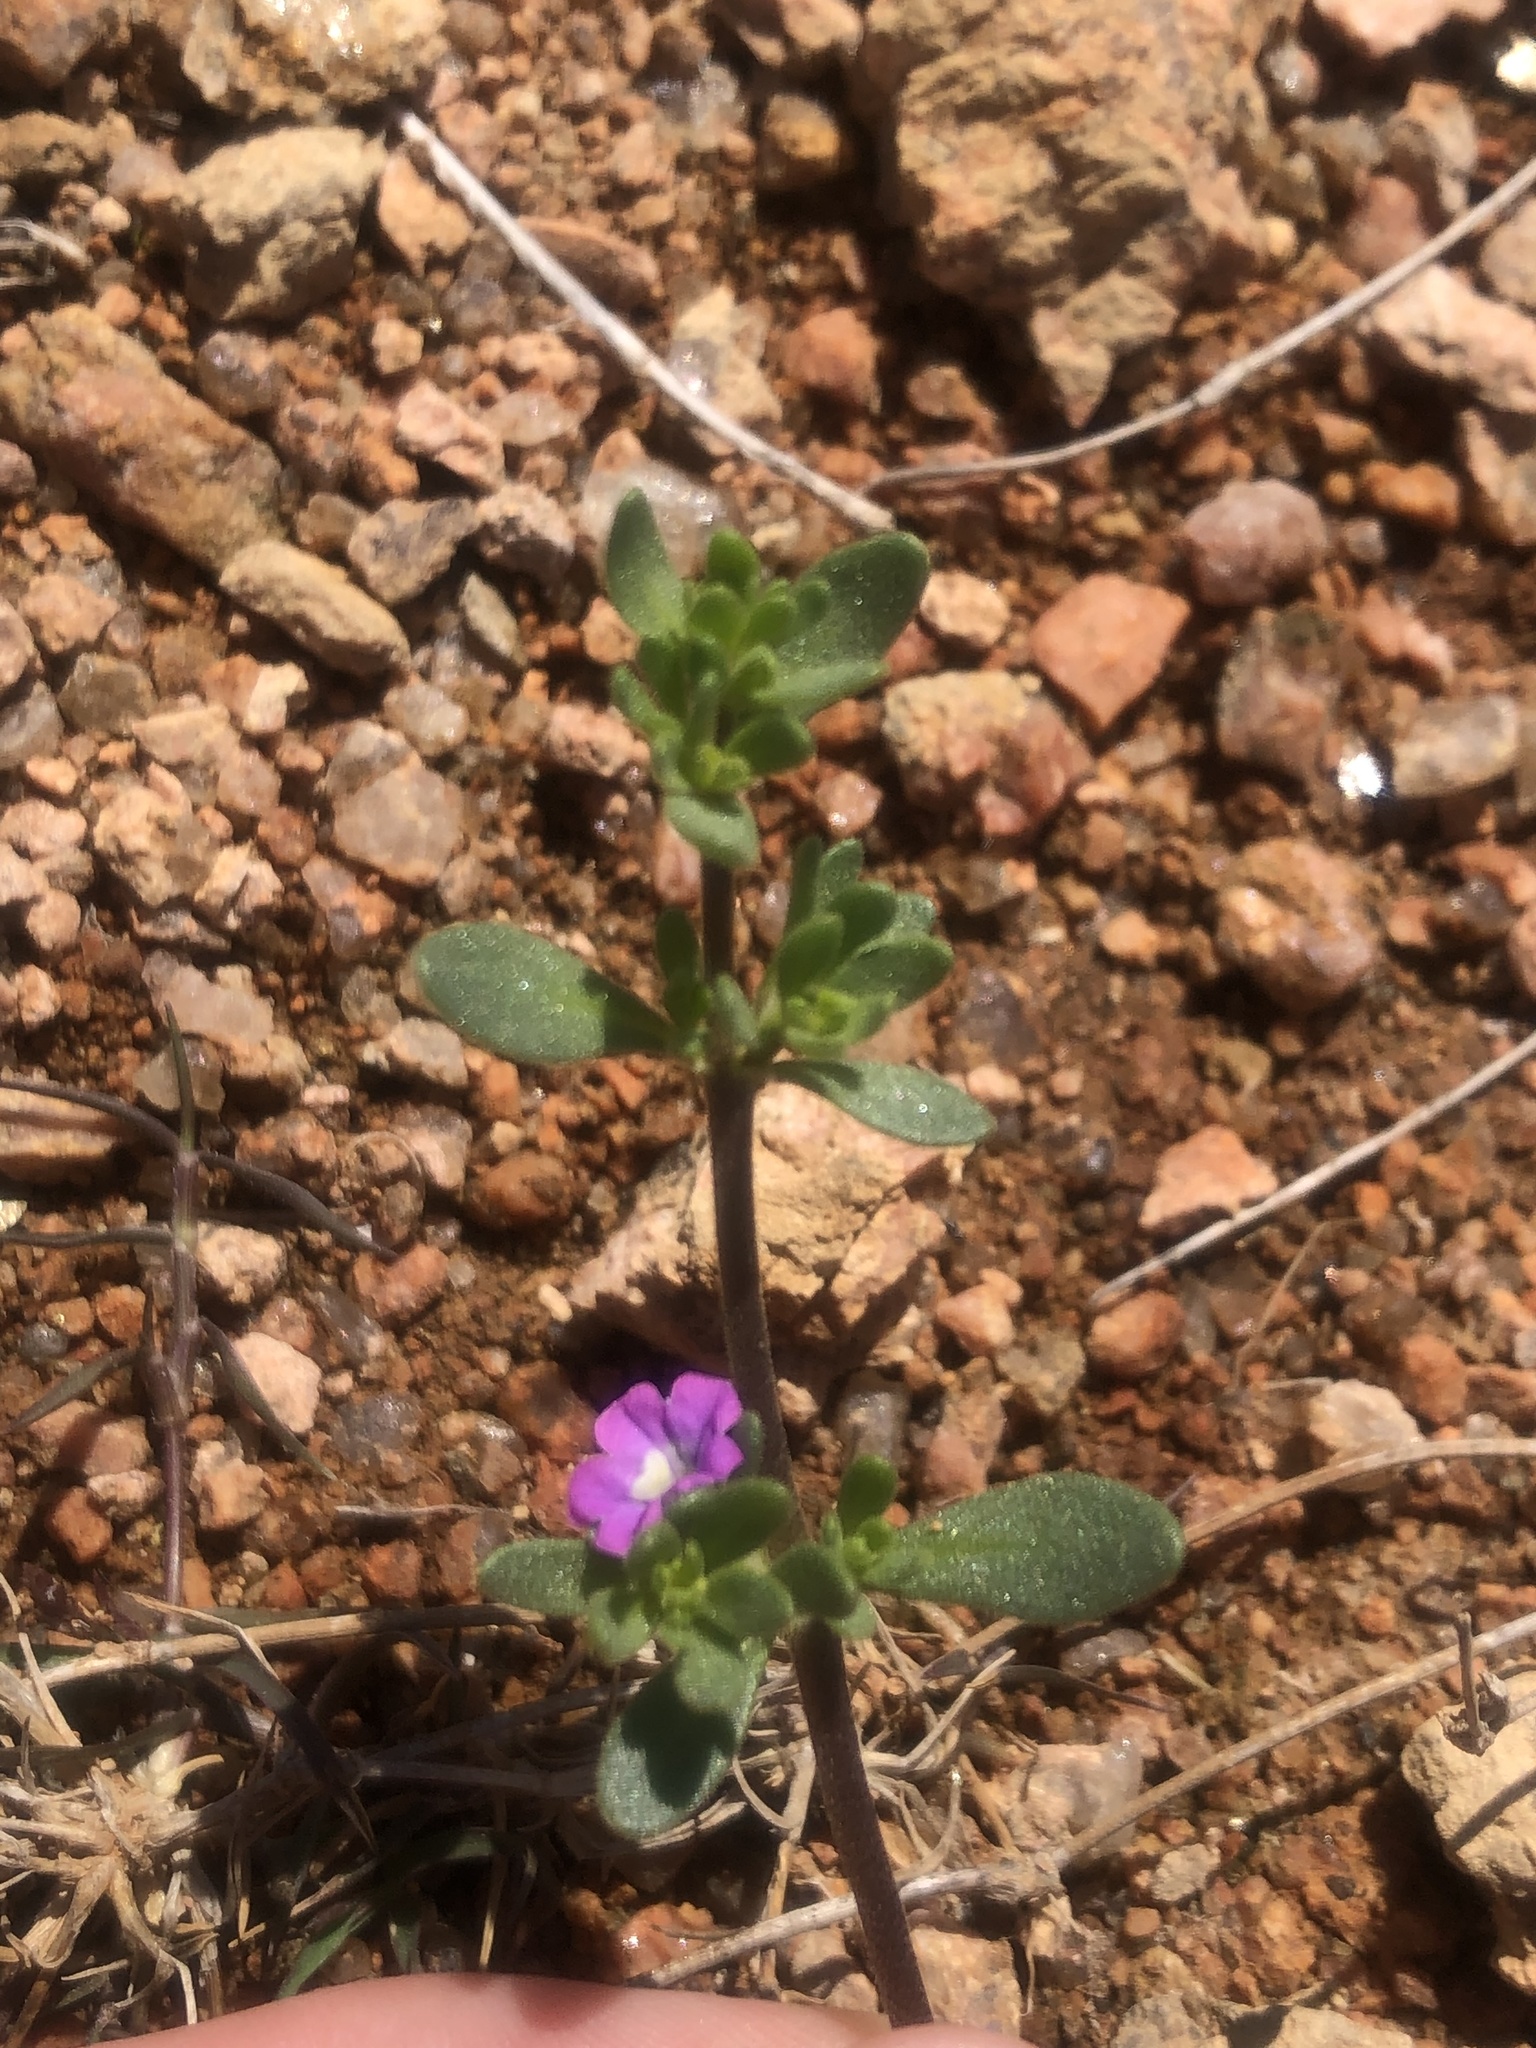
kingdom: Plantae
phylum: Tracheophyta
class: Magnoliopsida
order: Solanales
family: Solanaceae
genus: Calibrachoa
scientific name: Calibrachoa parviflora
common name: Seaside petunia
